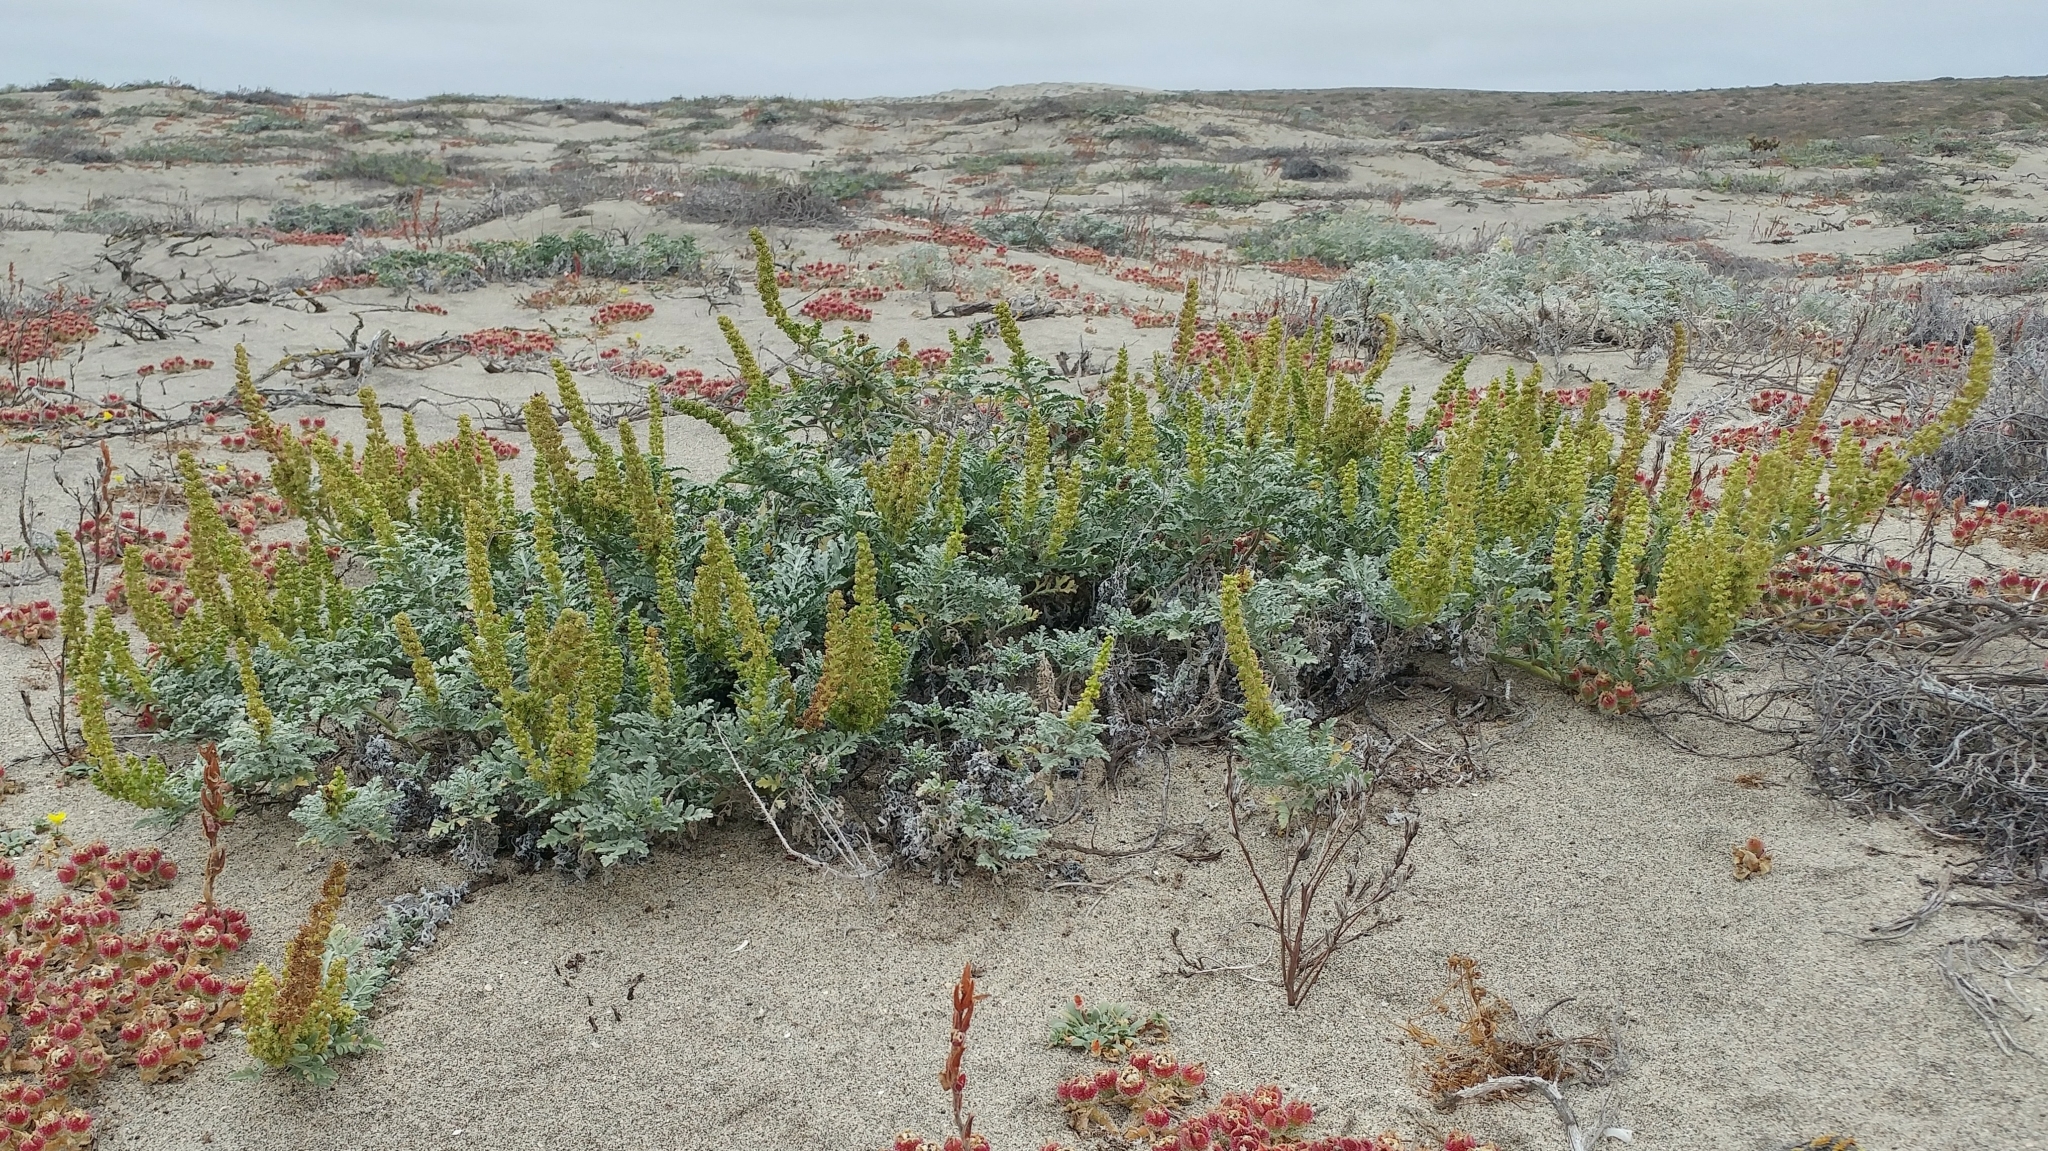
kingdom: Plantae
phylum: Tracheophyta
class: Magnoliopsida
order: Asterales
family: Asteraceae
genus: Ambrosia
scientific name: Ambrosia chamissonis
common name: Beachbur
